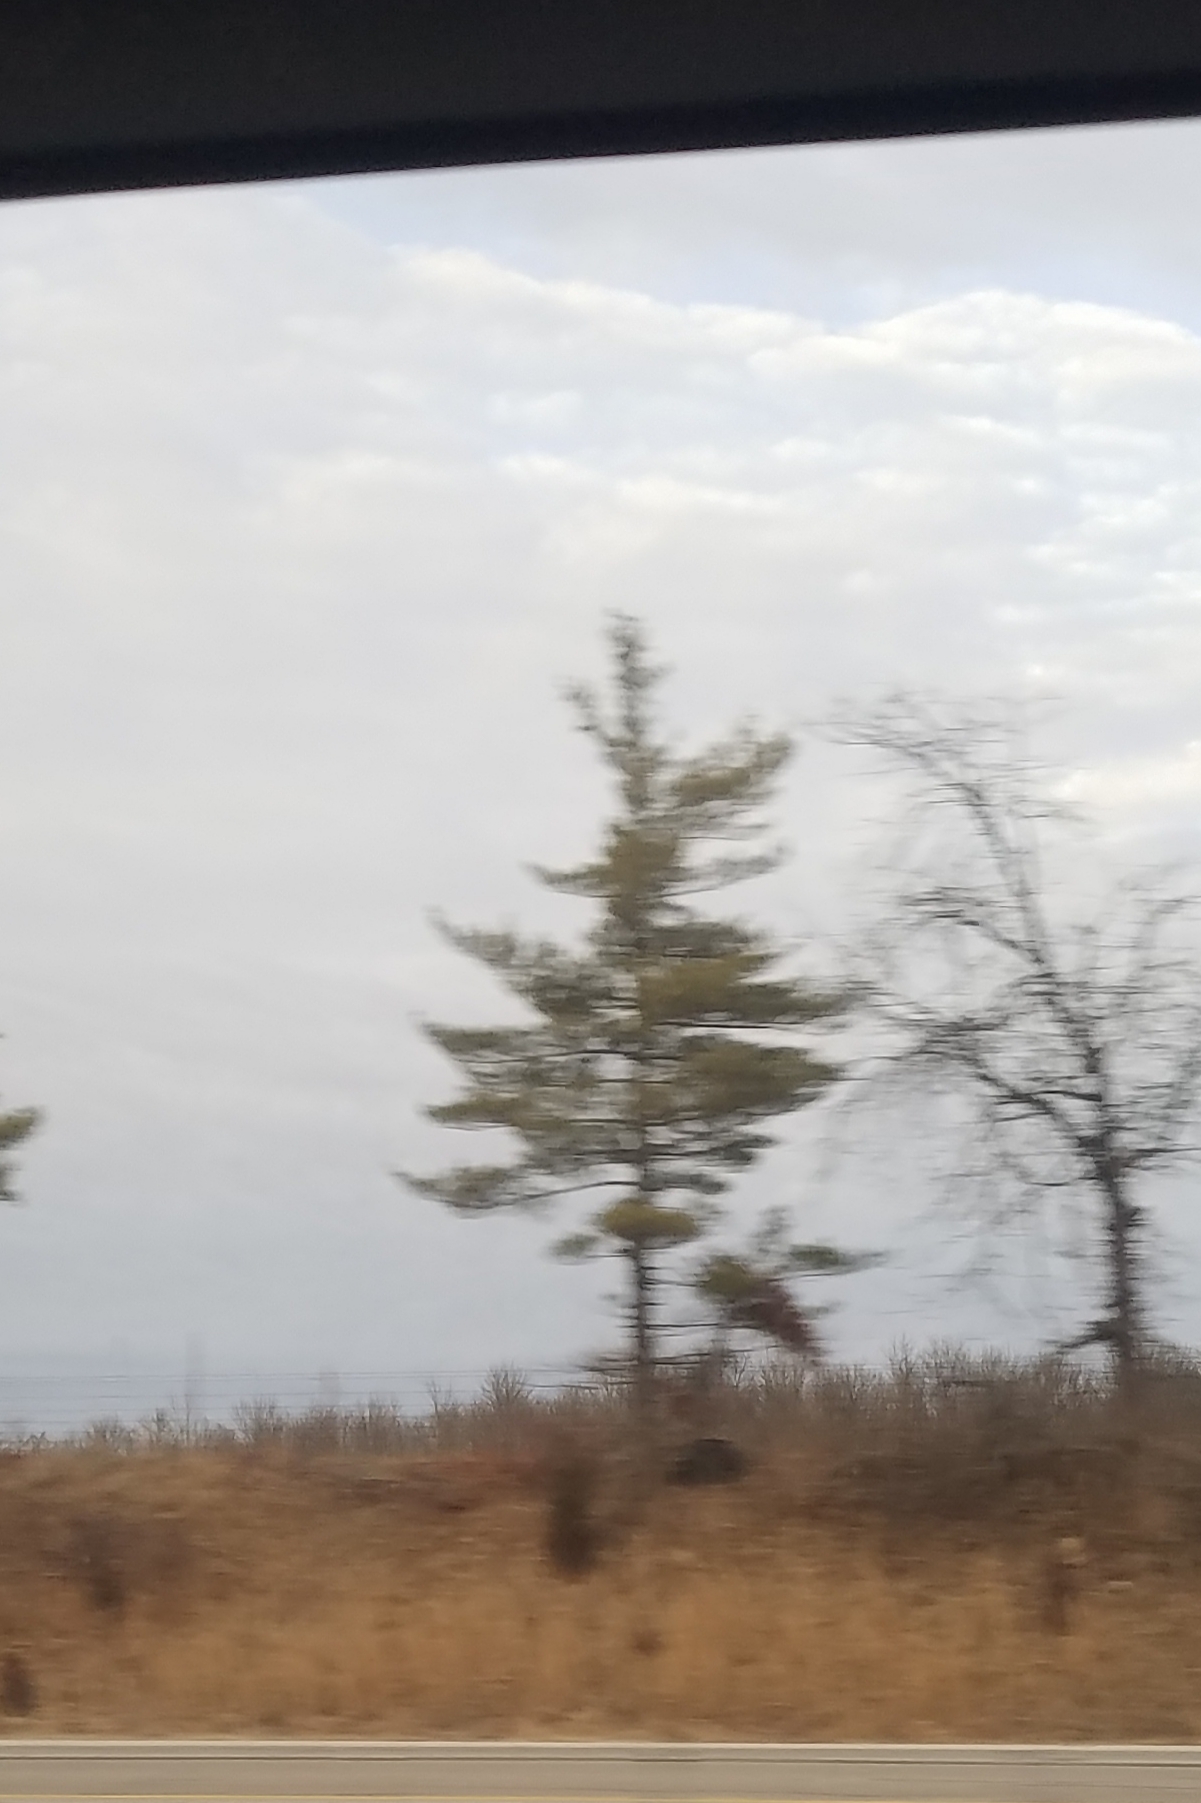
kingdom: Plantae
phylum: Tracheophyta
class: Pinopsida
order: Pinales
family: Pinaceae
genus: Pinus
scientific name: Pinus strobus
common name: Weymouth pine
